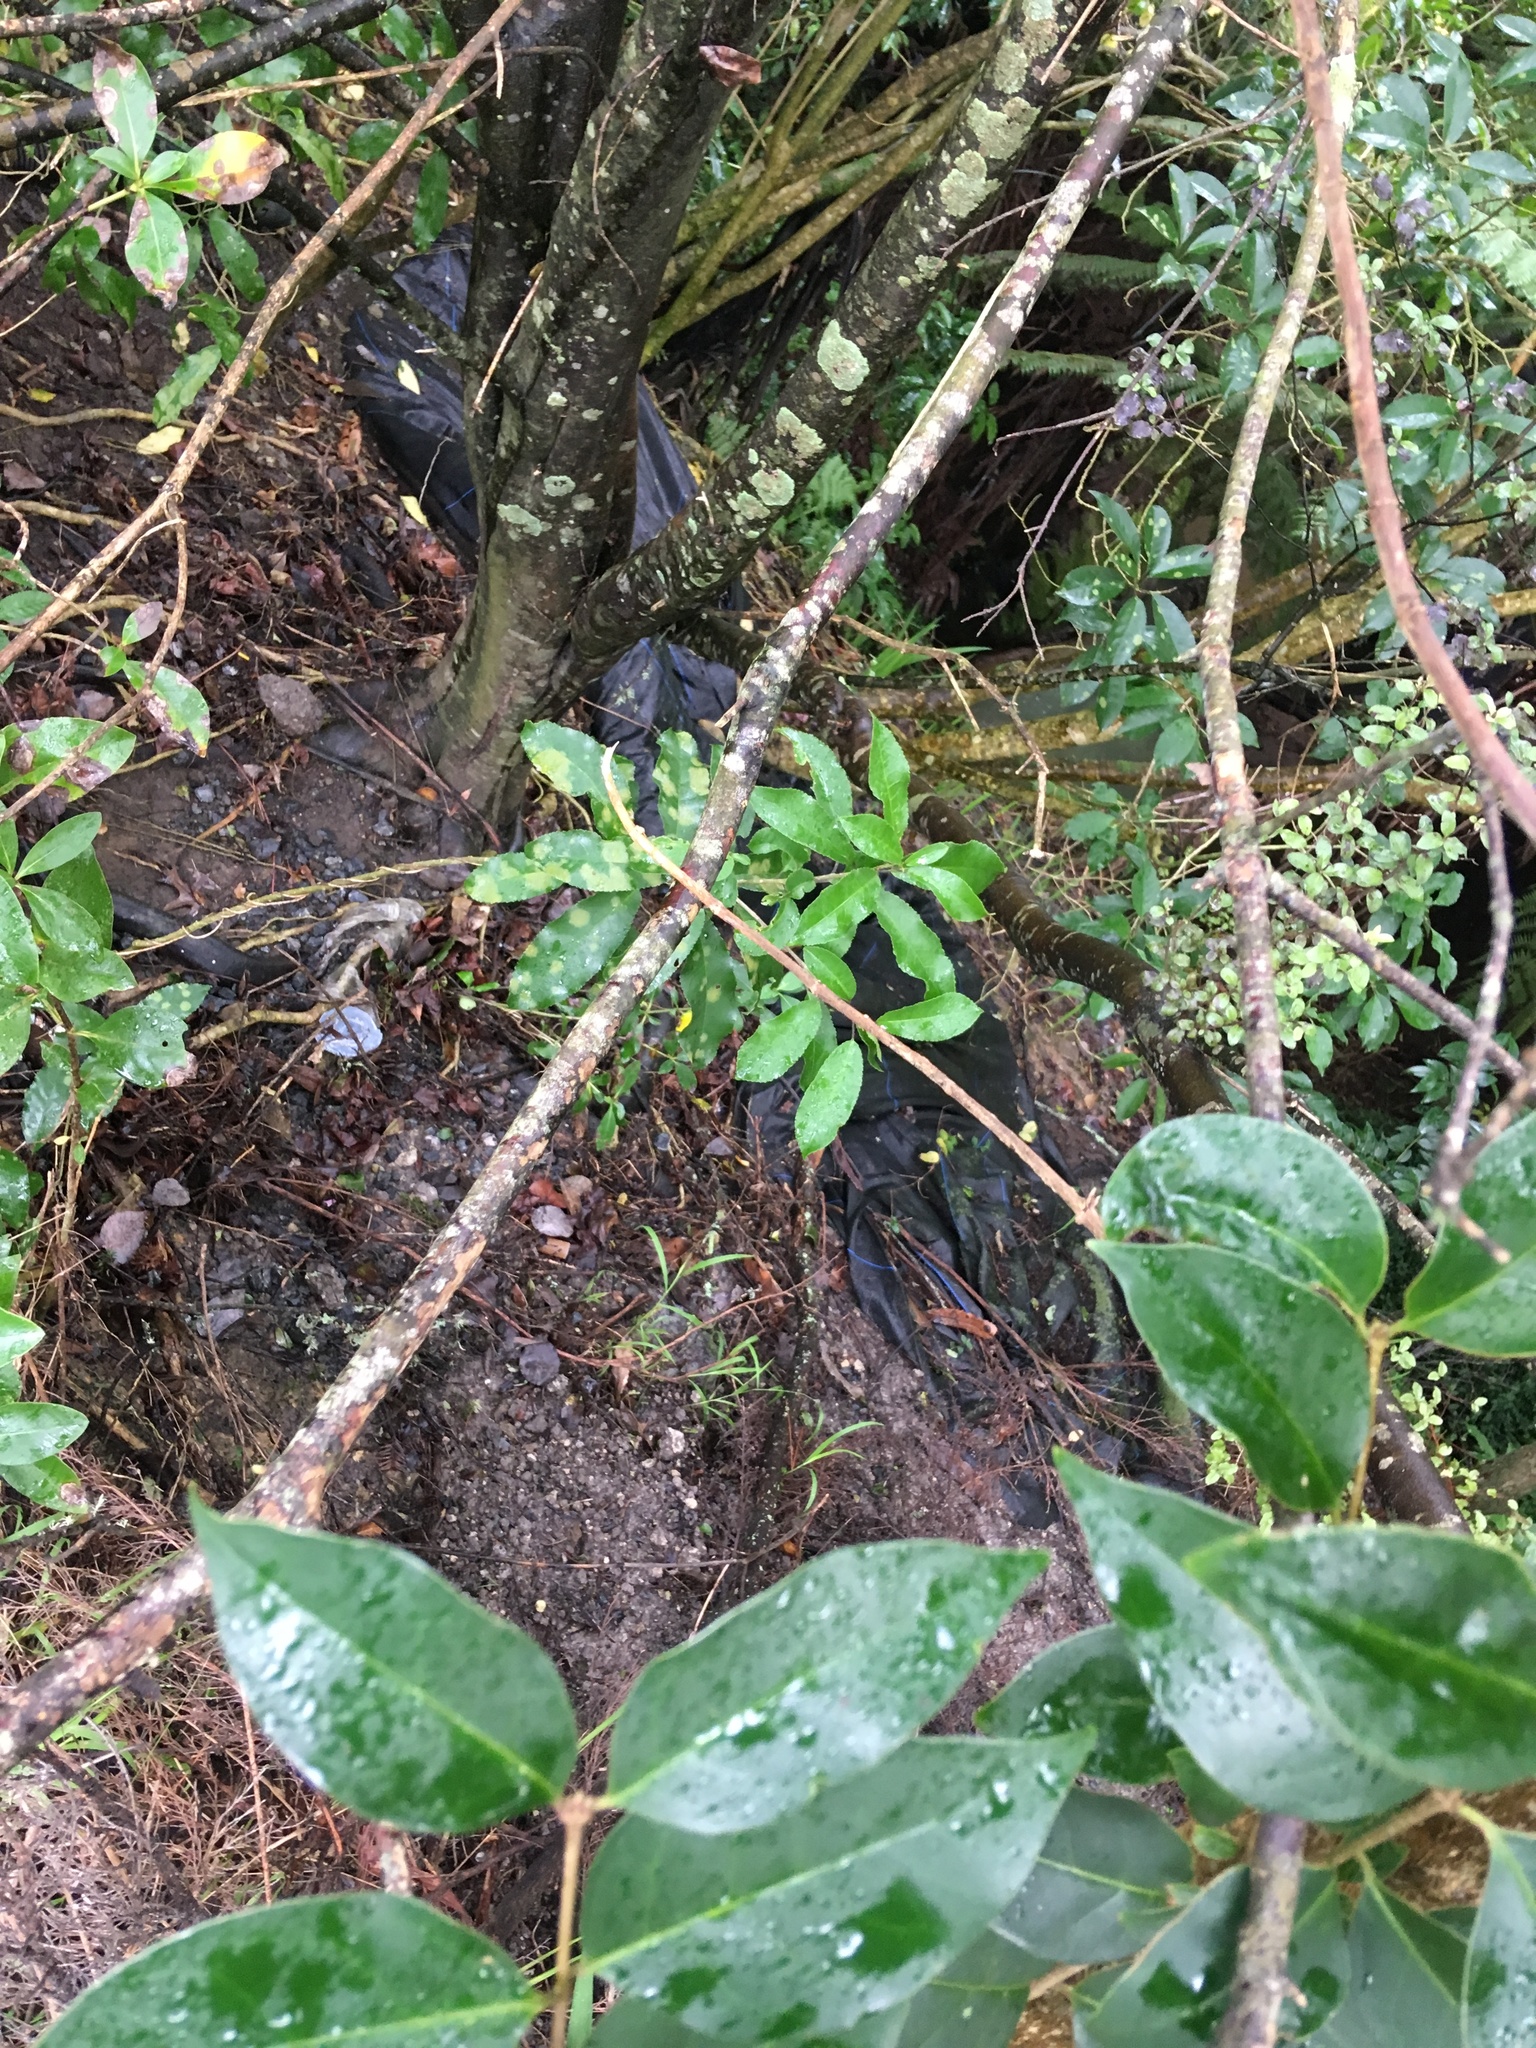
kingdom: Plantae
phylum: Tracheophyta
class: Magnoliopsida
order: Lamiales
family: Oleaceae
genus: Ligustrum
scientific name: Ligustrum lucidum
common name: Glossy privet
